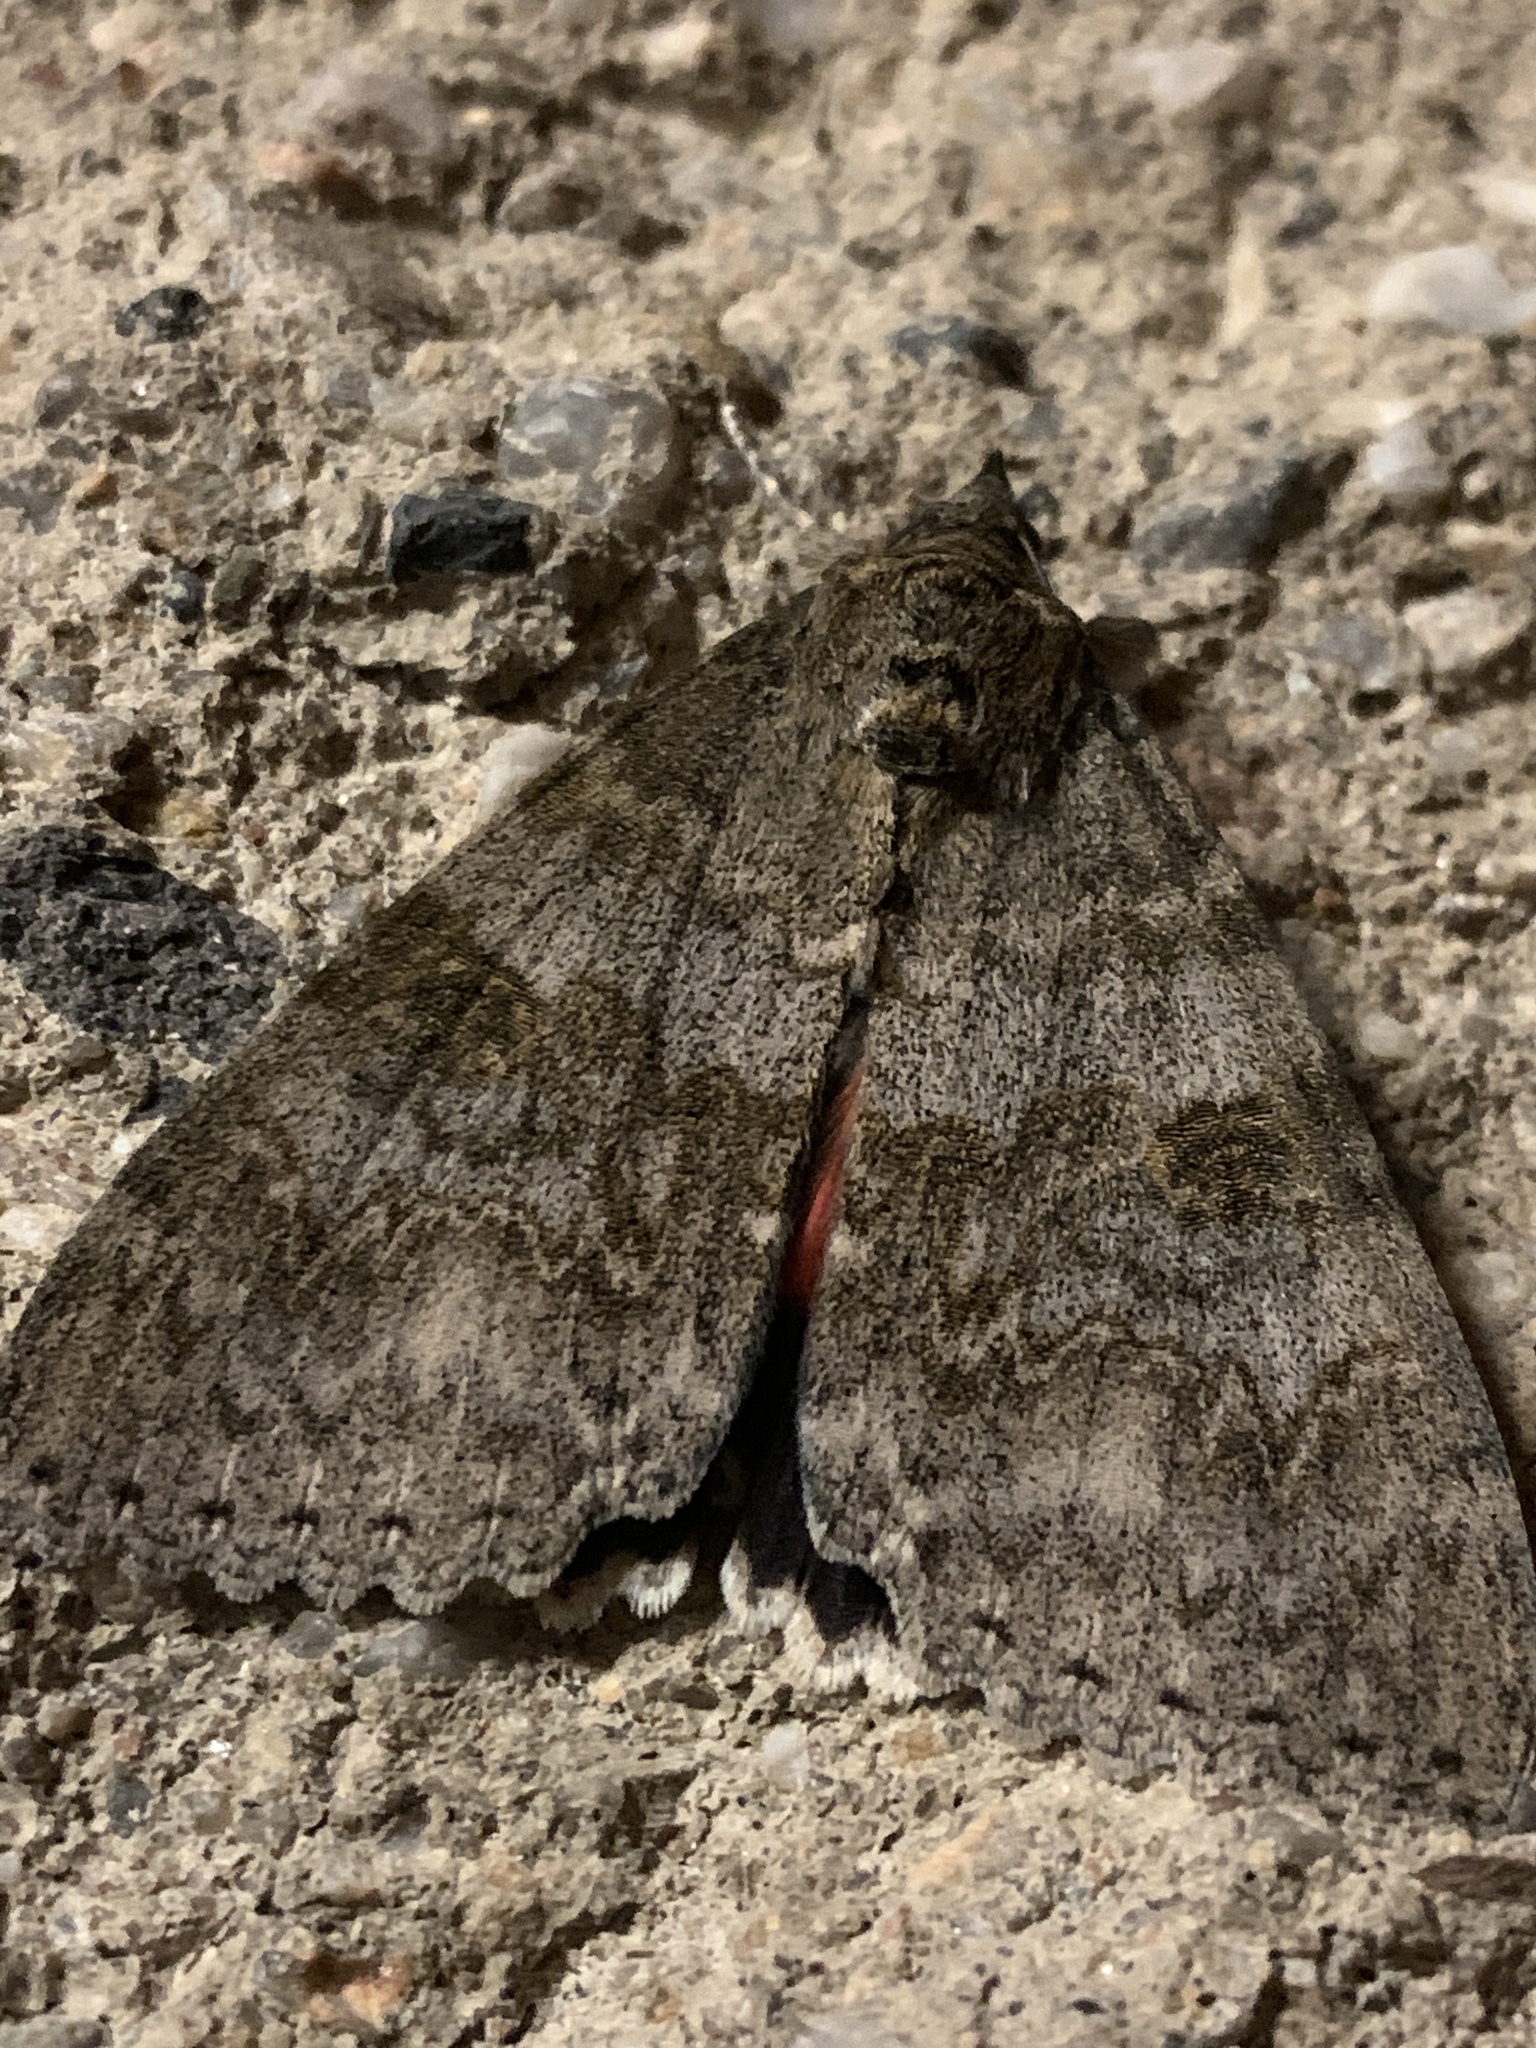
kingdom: Animalia
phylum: Arthropoda
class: Insecta
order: Lepidoptera
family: Erebidae
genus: Catocala
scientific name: Catocala nupta
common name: Red underwing
